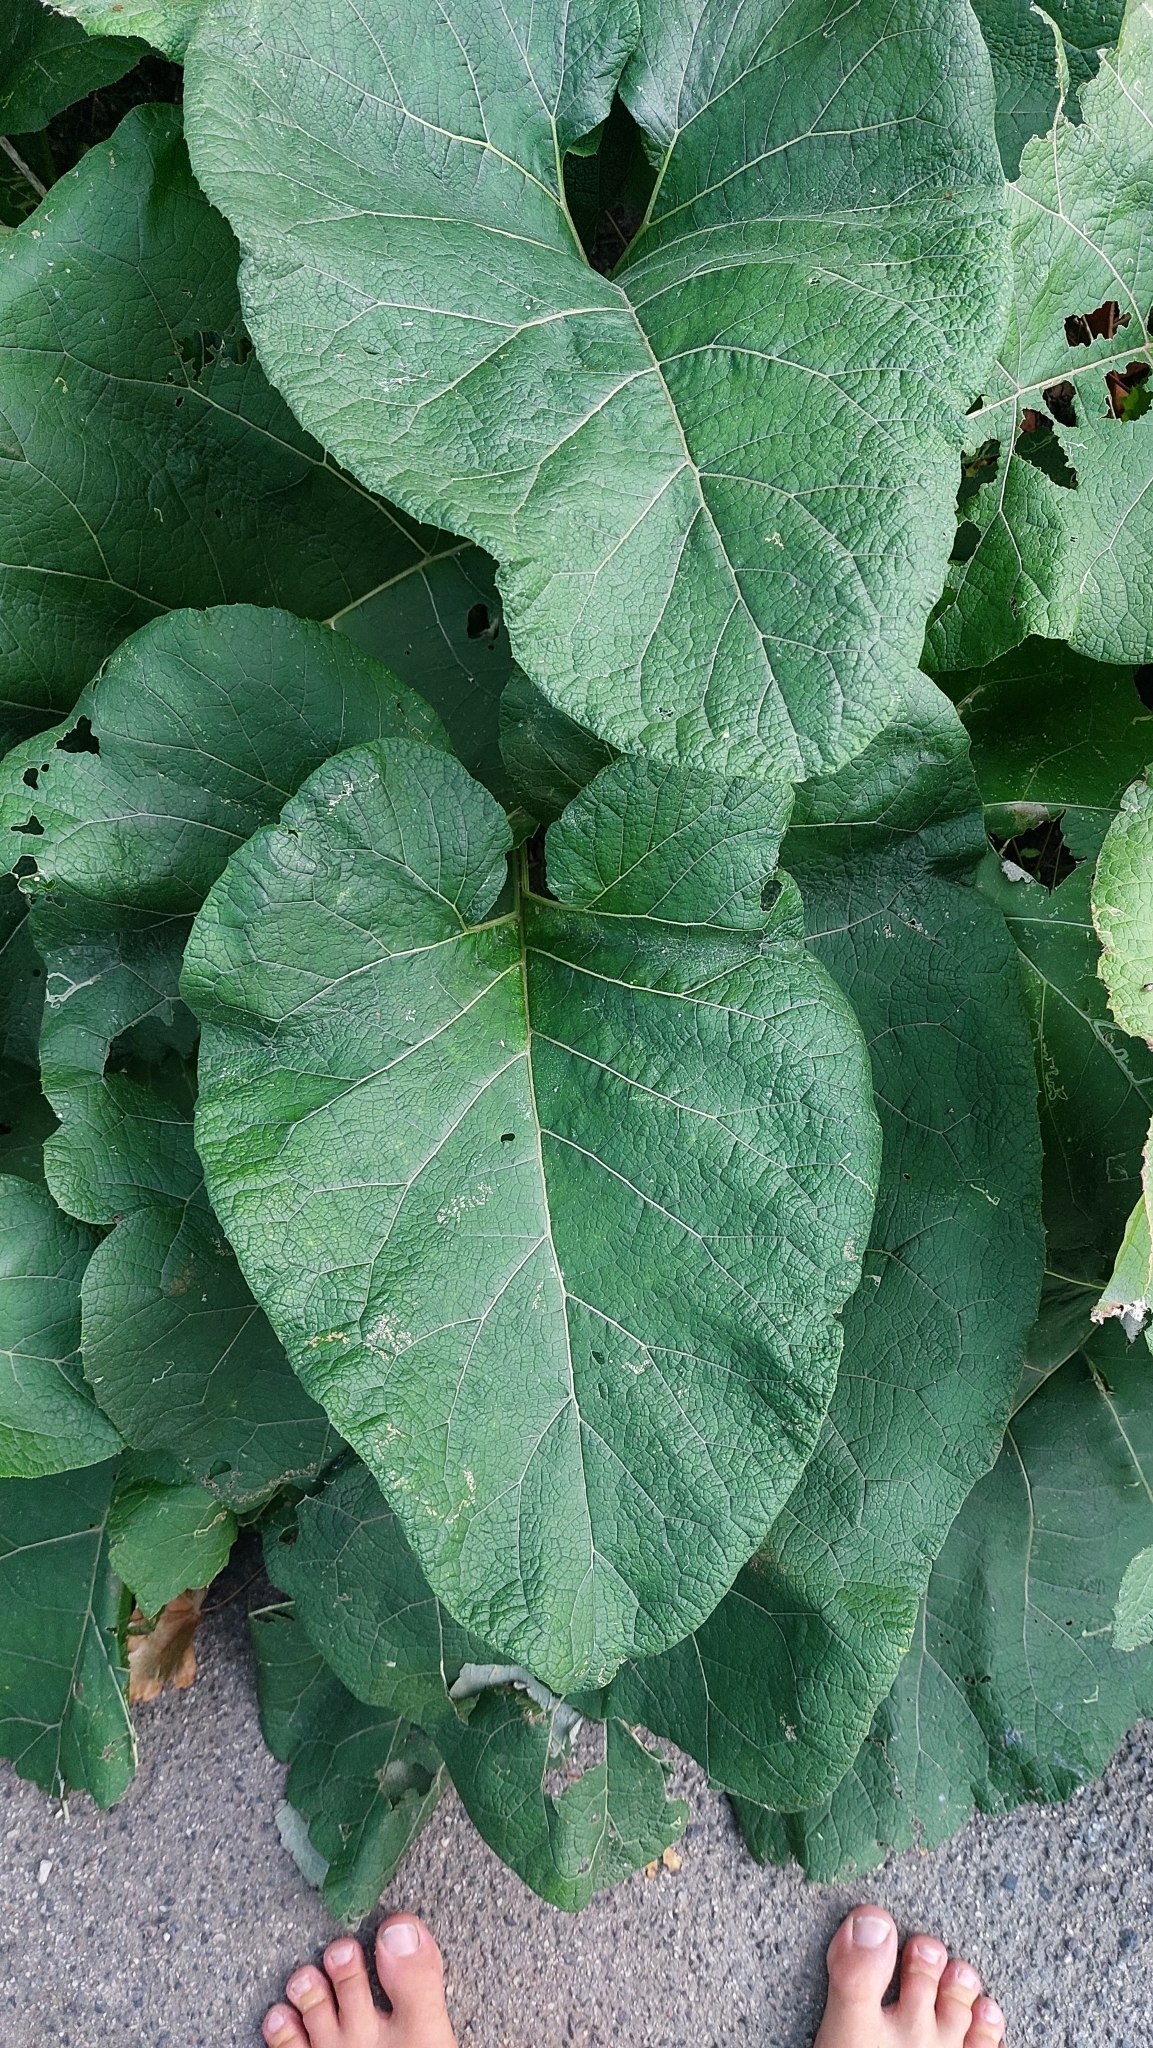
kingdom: Plantae
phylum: Tracheophyta
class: Magnoliopsida
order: Asterales
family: Asteraceae
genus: Arctium
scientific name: Arctium
